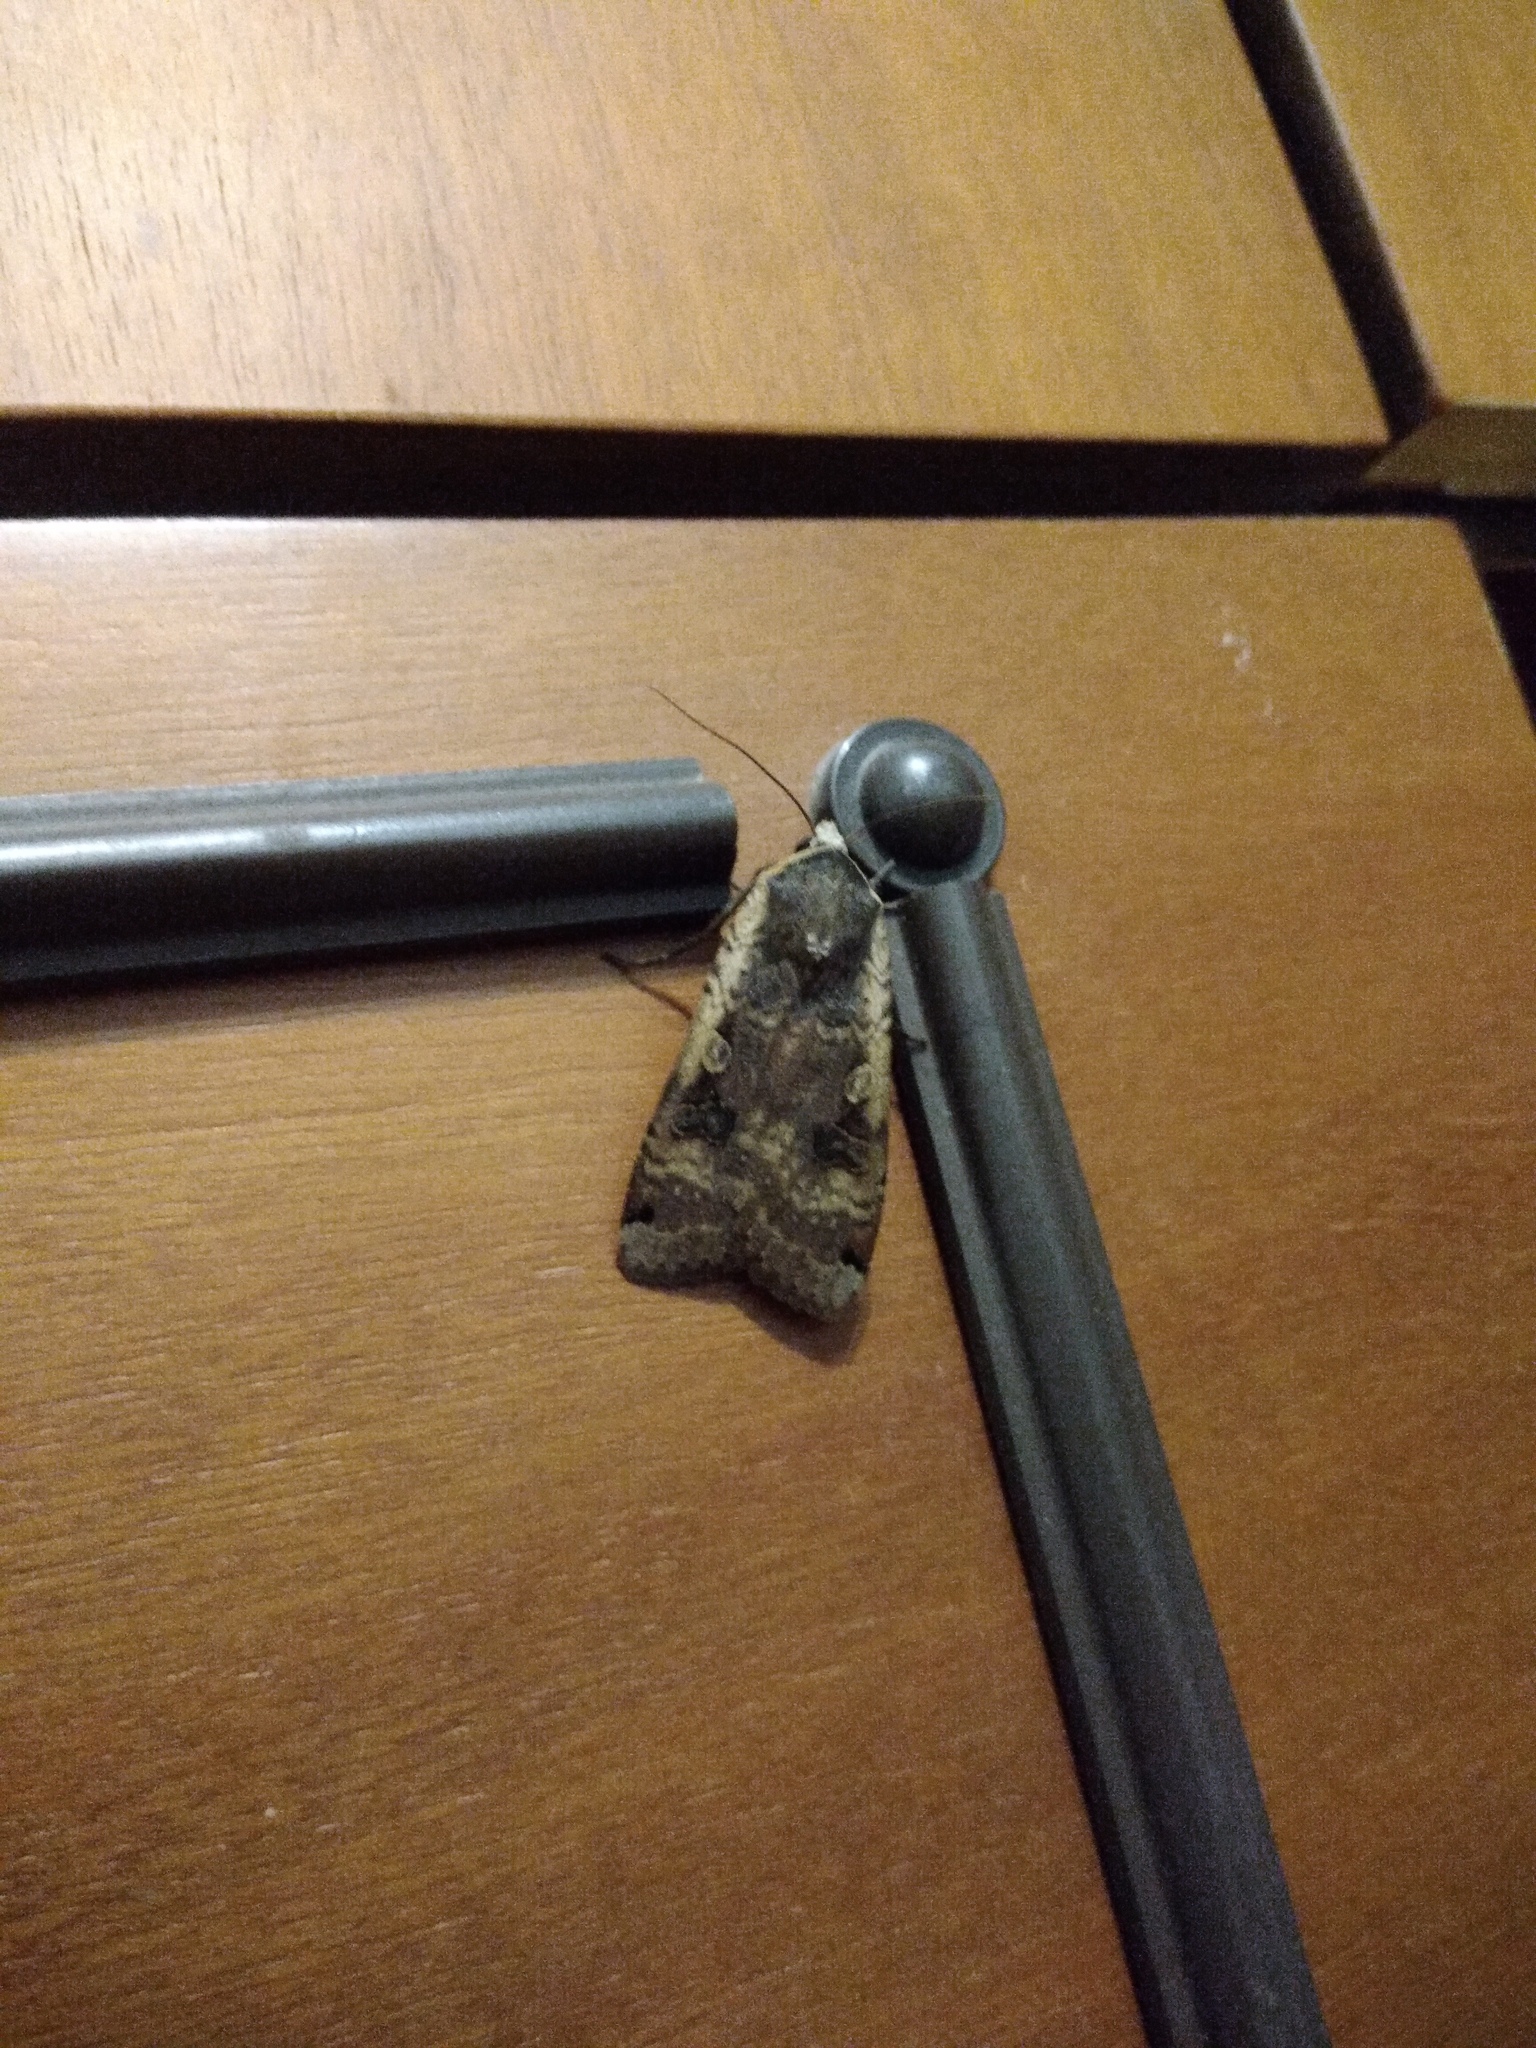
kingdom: Animalia
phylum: Arthropoda
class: Insecta
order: Lepidoptera
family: Noctuidae
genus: Noctua
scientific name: Noctua pronuba
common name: Large yellow underwing
